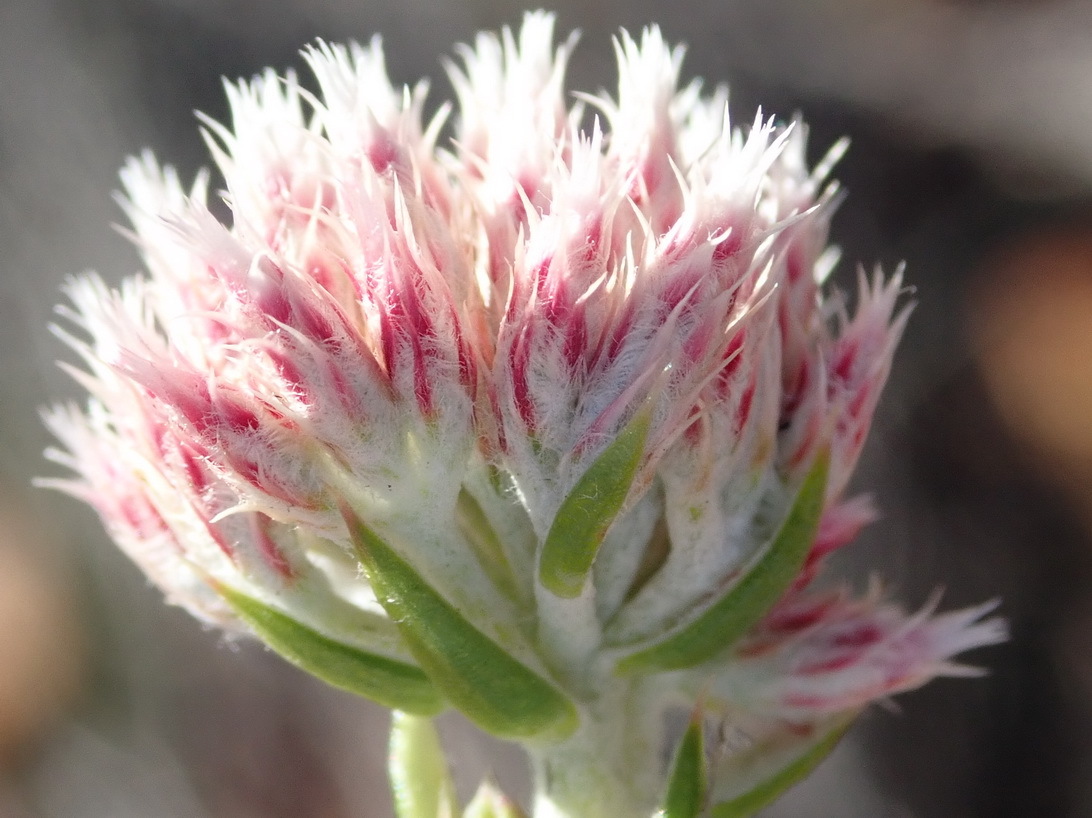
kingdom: Plantae
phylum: Tracheophyta
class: Magnoliopsida
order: Asterales
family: Asteraceae
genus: Metalasia
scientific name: Metalasia pulcherrima
